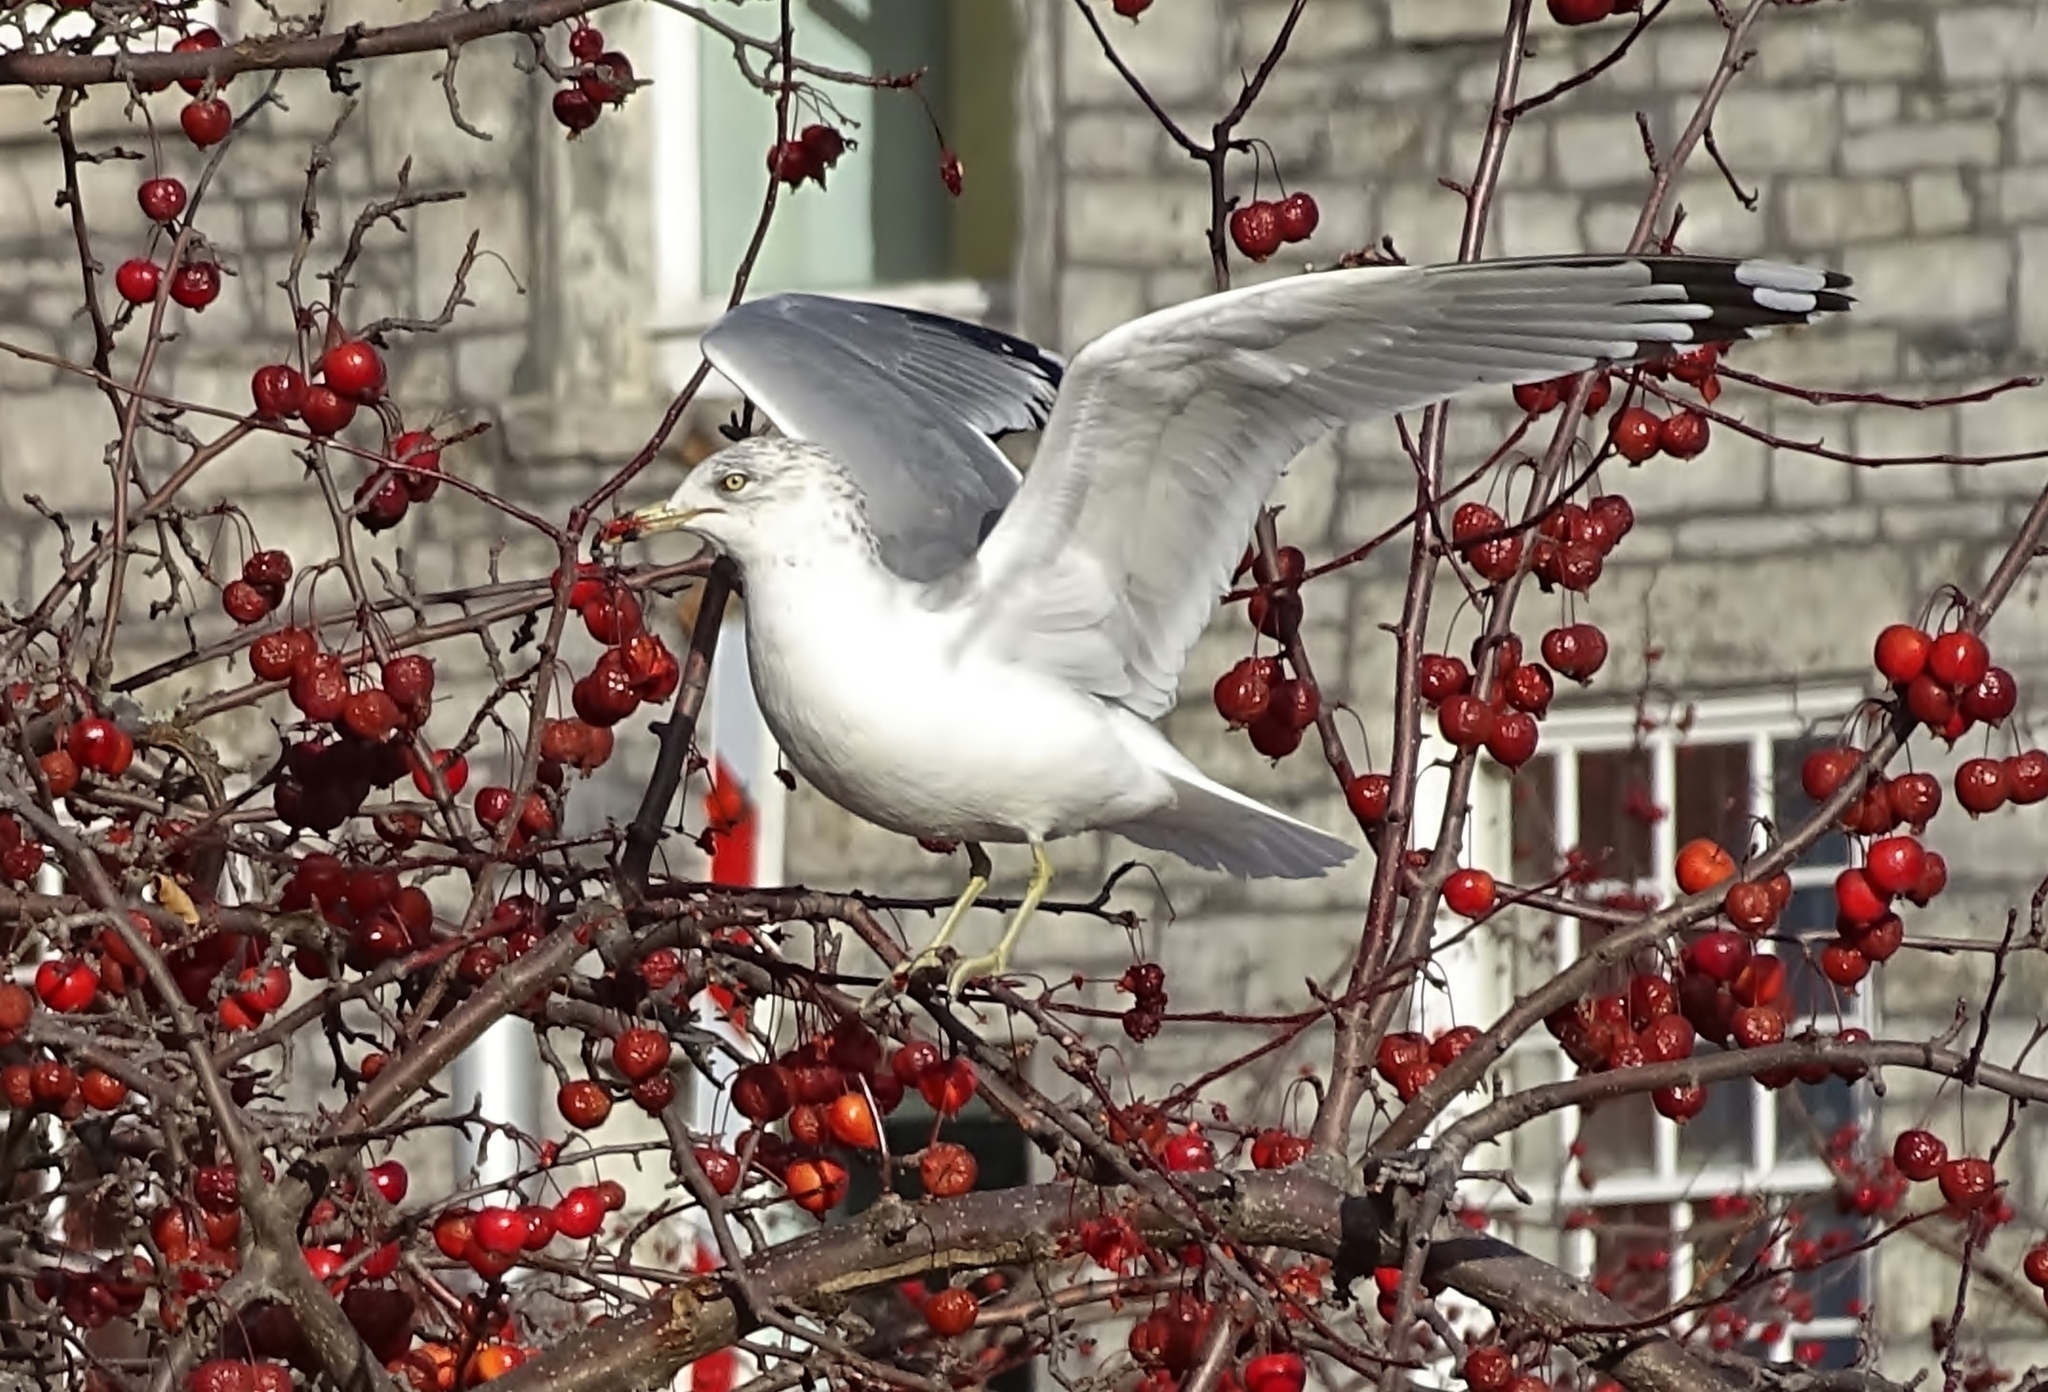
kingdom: Animalia
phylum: Chordata
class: Aves
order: Charadriiformes
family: Laridae
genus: Larus
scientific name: Larus delawarensis
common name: Ring-billed gull
